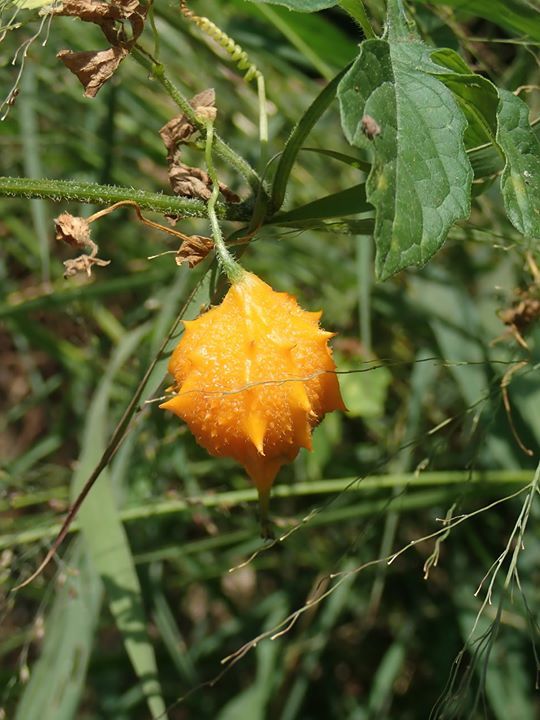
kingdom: Plantae
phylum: Tracheophyta
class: Magnoliopsida
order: Cucurbitales
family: Cucurbitaceae
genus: Momordica
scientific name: Momordica charantia
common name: Balsampear
